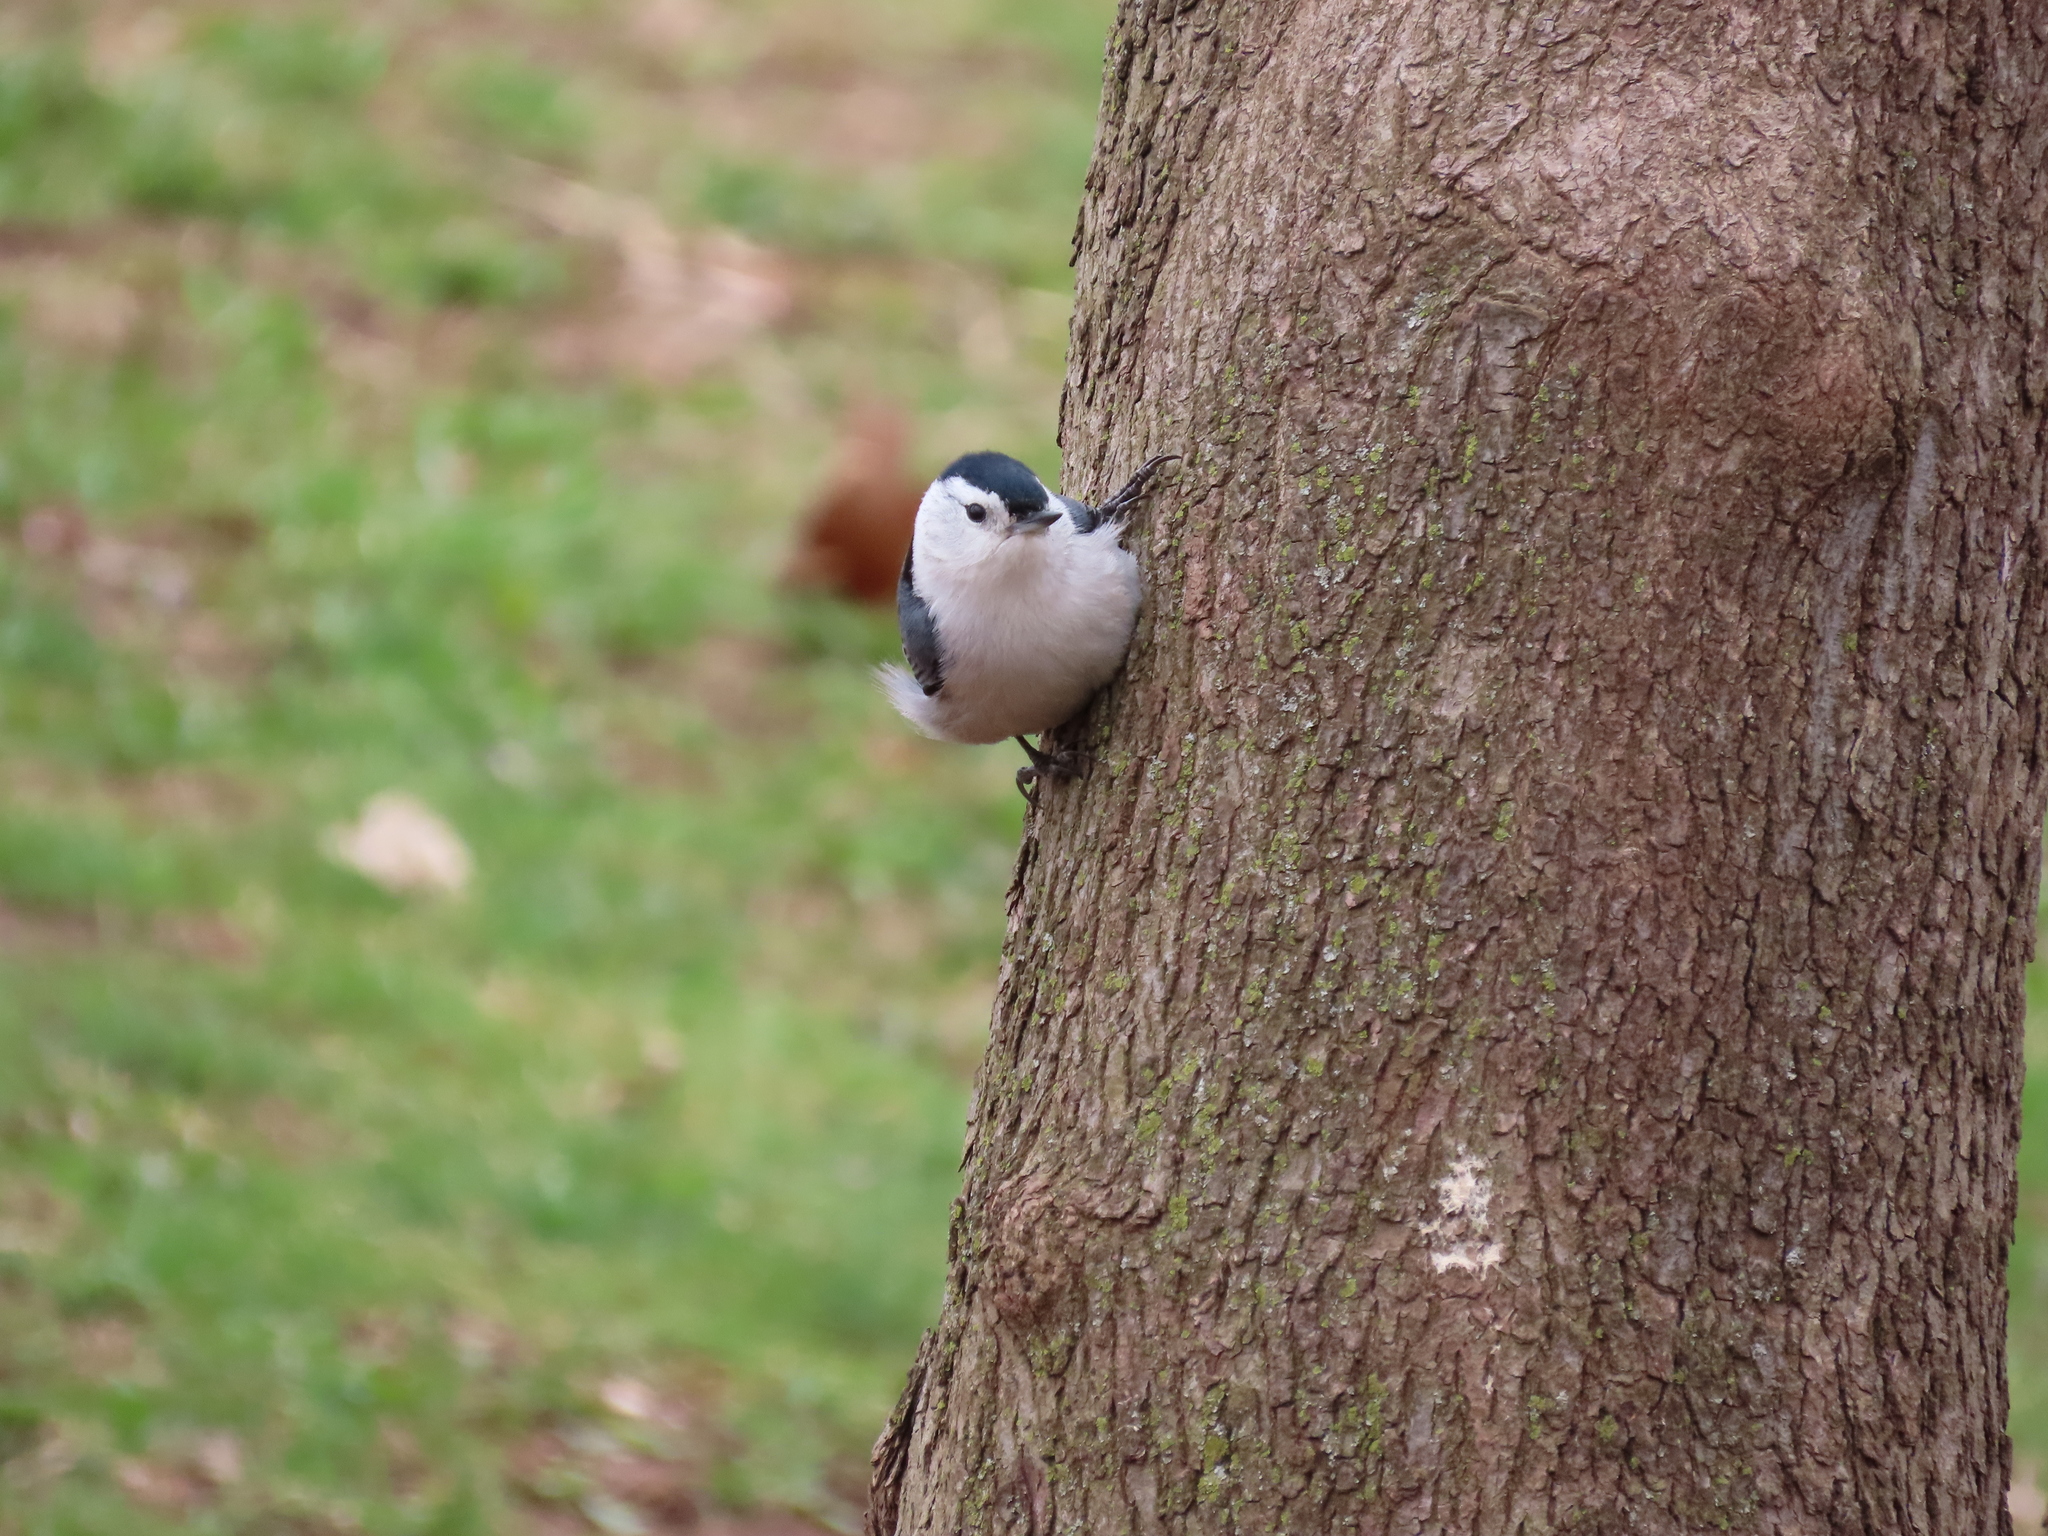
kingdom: Animalia
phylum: Chordata
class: Aves
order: Passeriformes
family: Sittidae
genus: Sitta
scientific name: Sitta carolinensis
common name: White-breasted nuthatch
